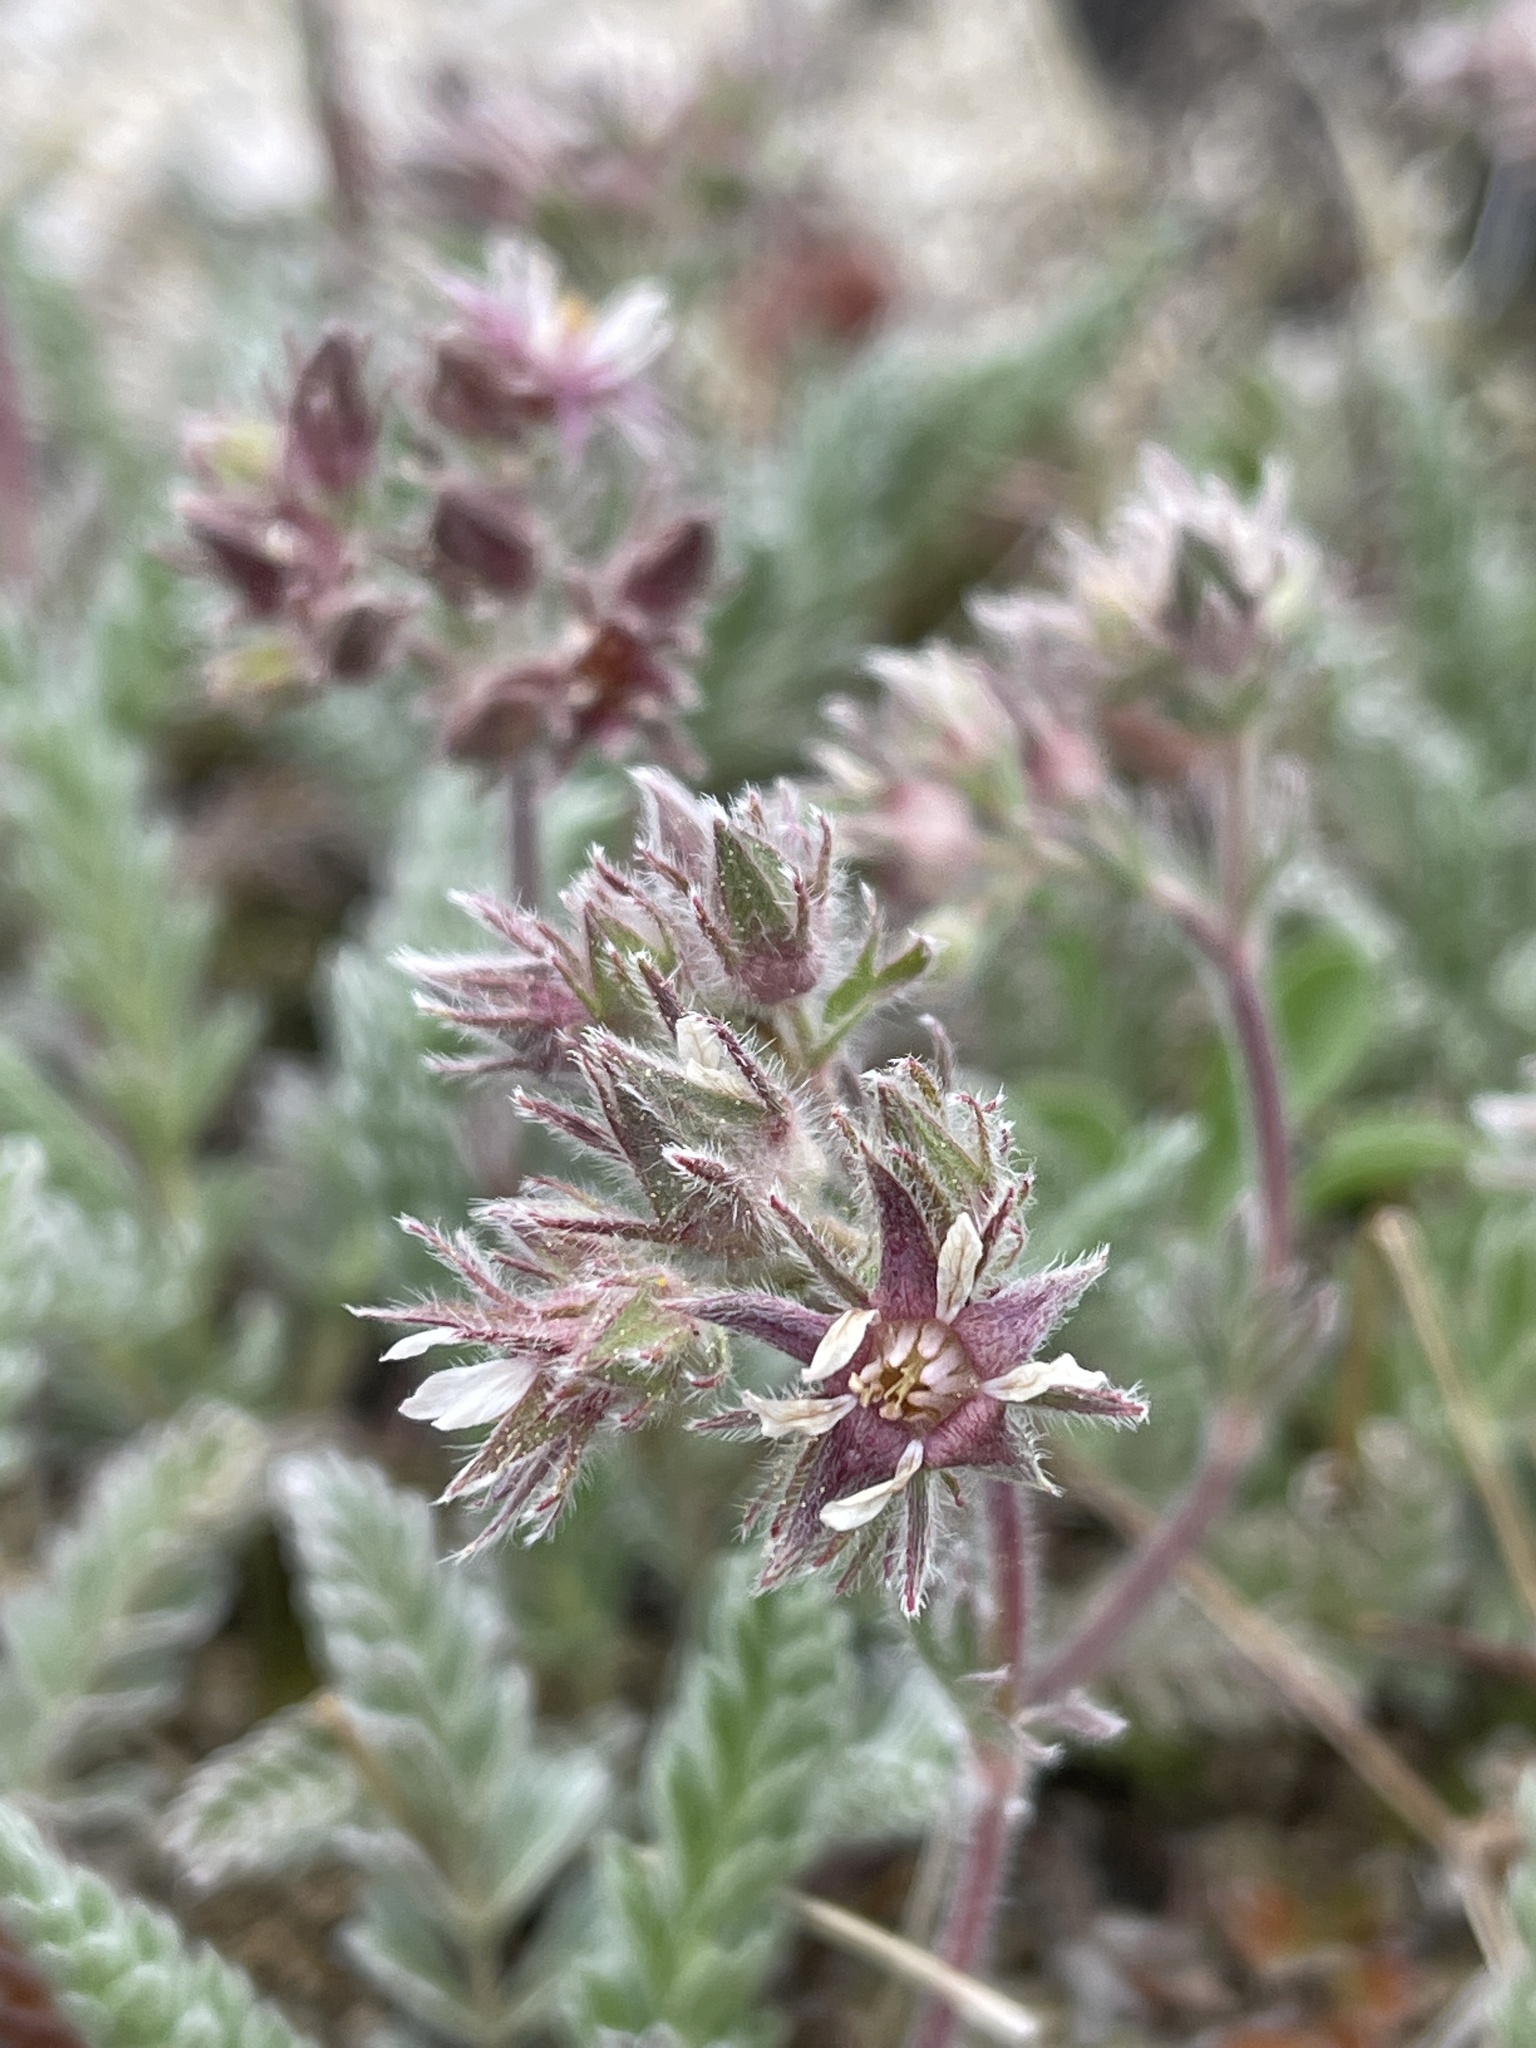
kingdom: Plantae
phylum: Tracheophyta
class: Magnoliopsida
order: Rosales
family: Rosaceae
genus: Potentilla
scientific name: Potentilla hendersonii
